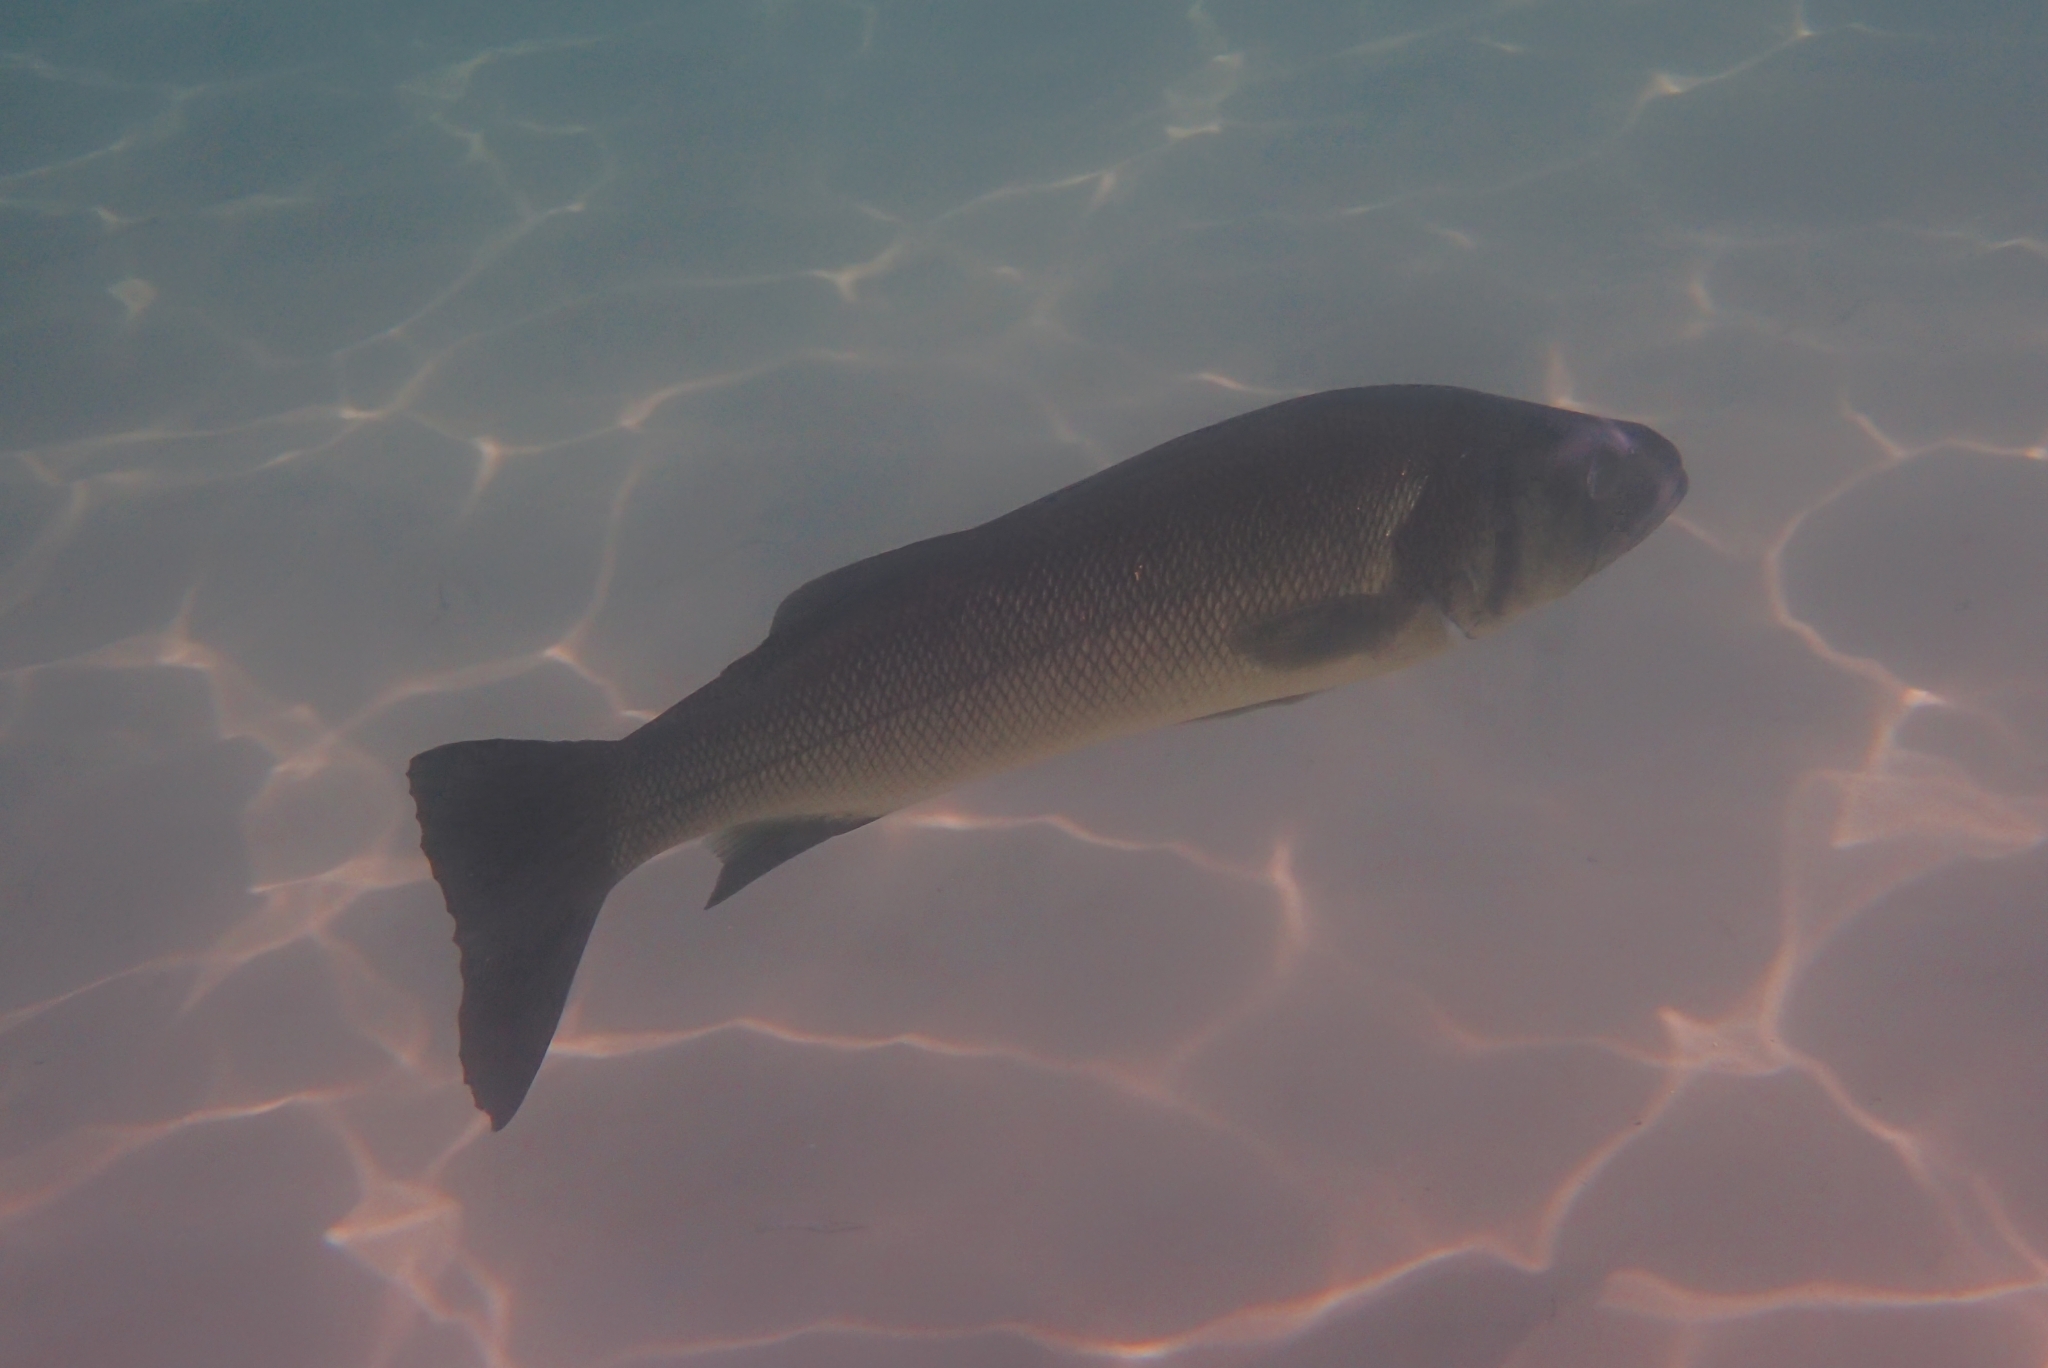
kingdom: Animalia
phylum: Chordata
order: Perciformes
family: Moronidae
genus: Dicentrarchus
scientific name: Dicentrarchus labrax
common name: European seabass
